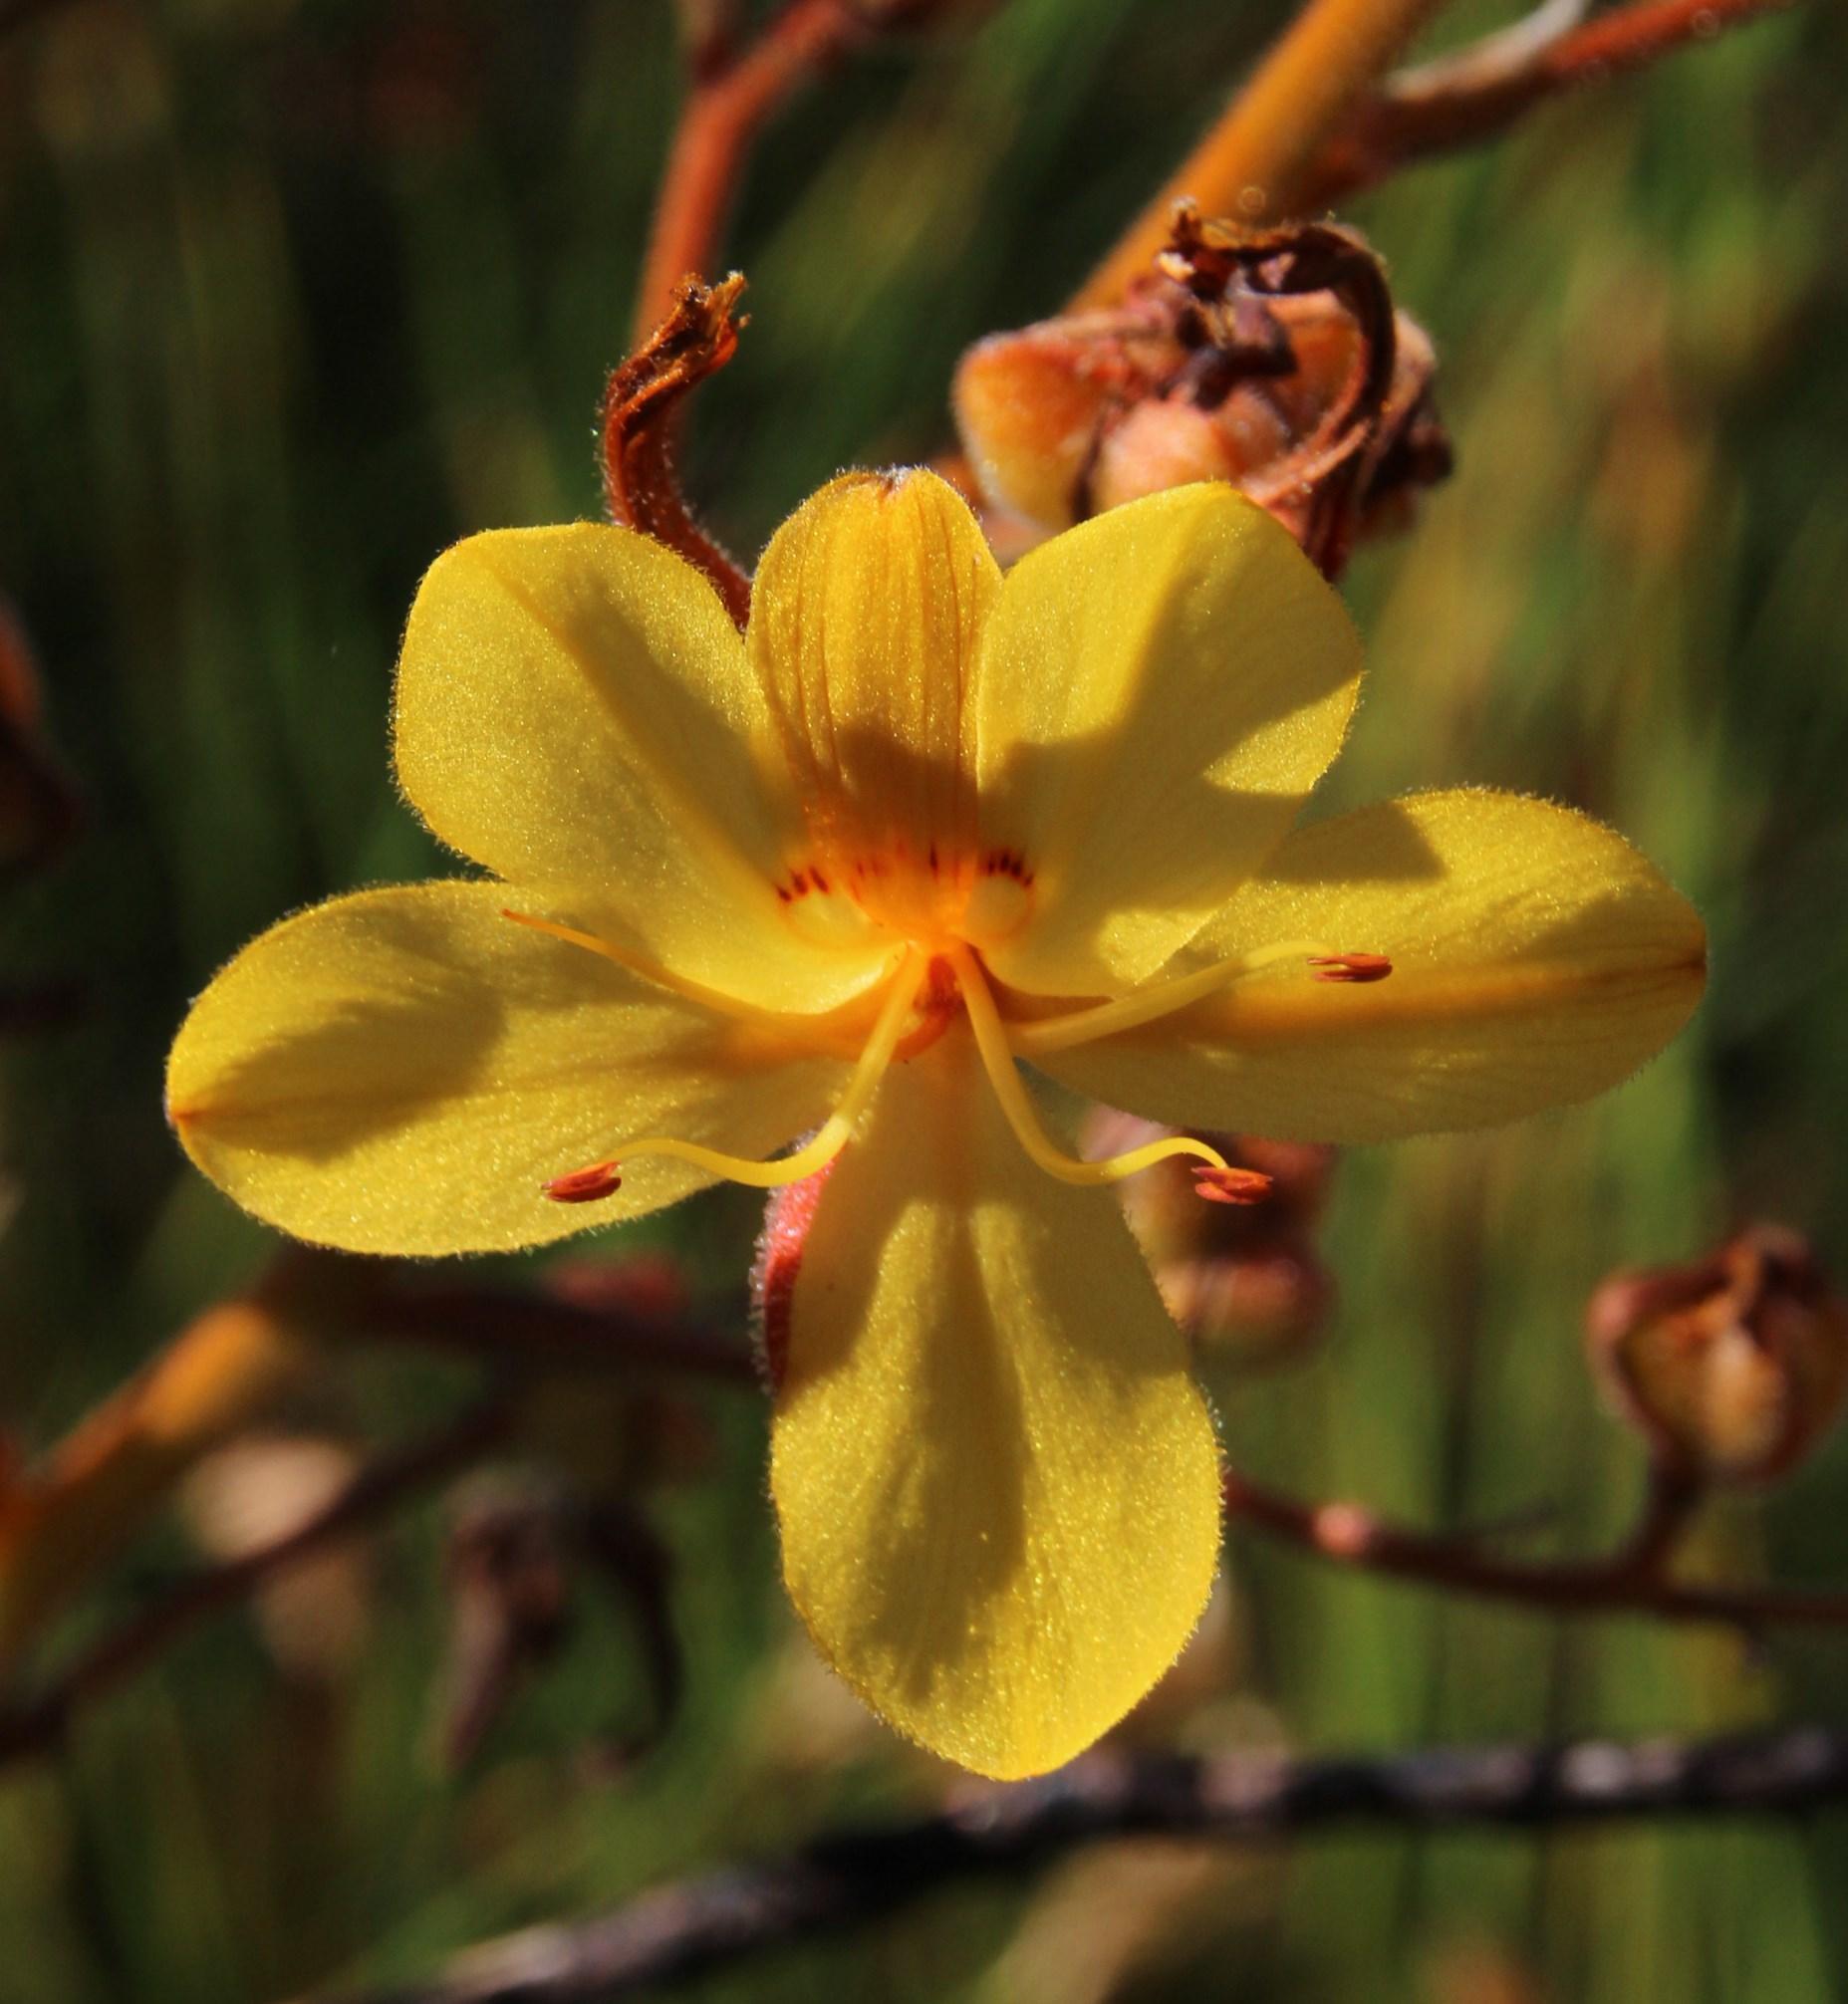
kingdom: Plantae
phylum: Tracheophyta
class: Liliopsida
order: Commelinales
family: Haemodoraceae
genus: Wachendorfia
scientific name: Wachendorfia paniculata
